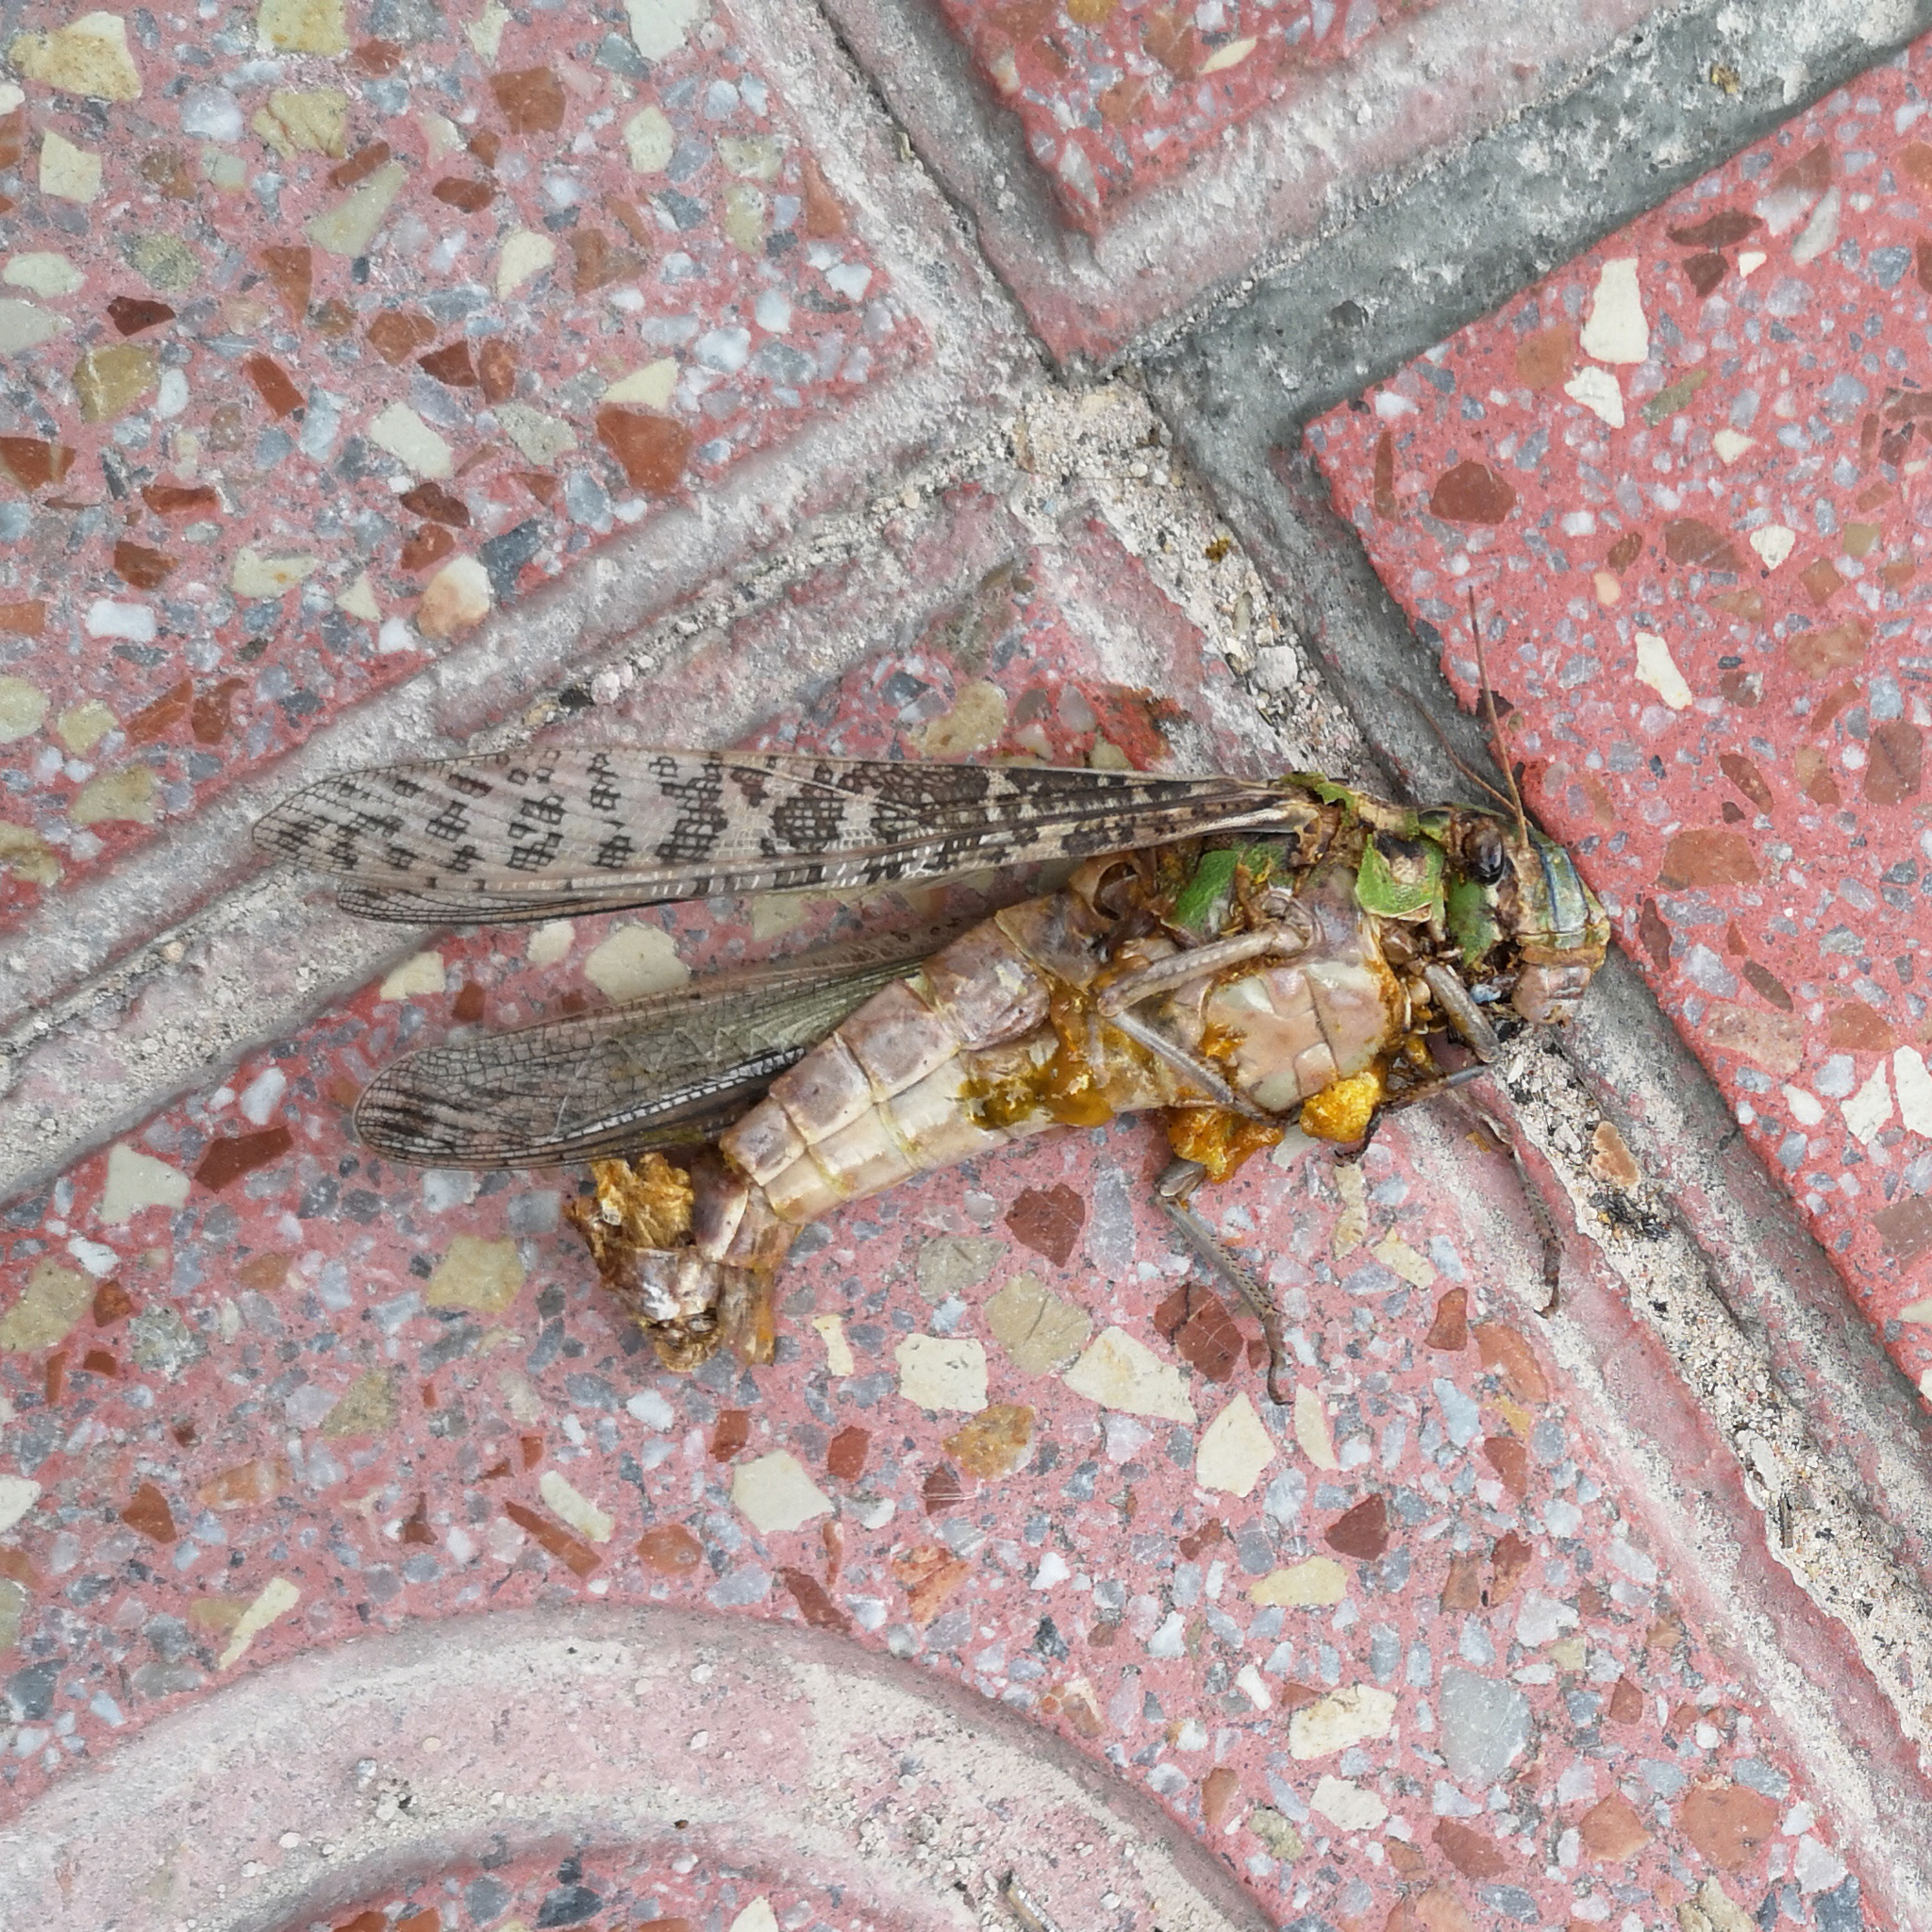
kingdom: Animalia
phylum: Arthropoda
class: Insecta
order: Orthoptera
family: Acrididae
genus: Locusta
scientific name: Locusta migratoria
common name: Migratory locust
